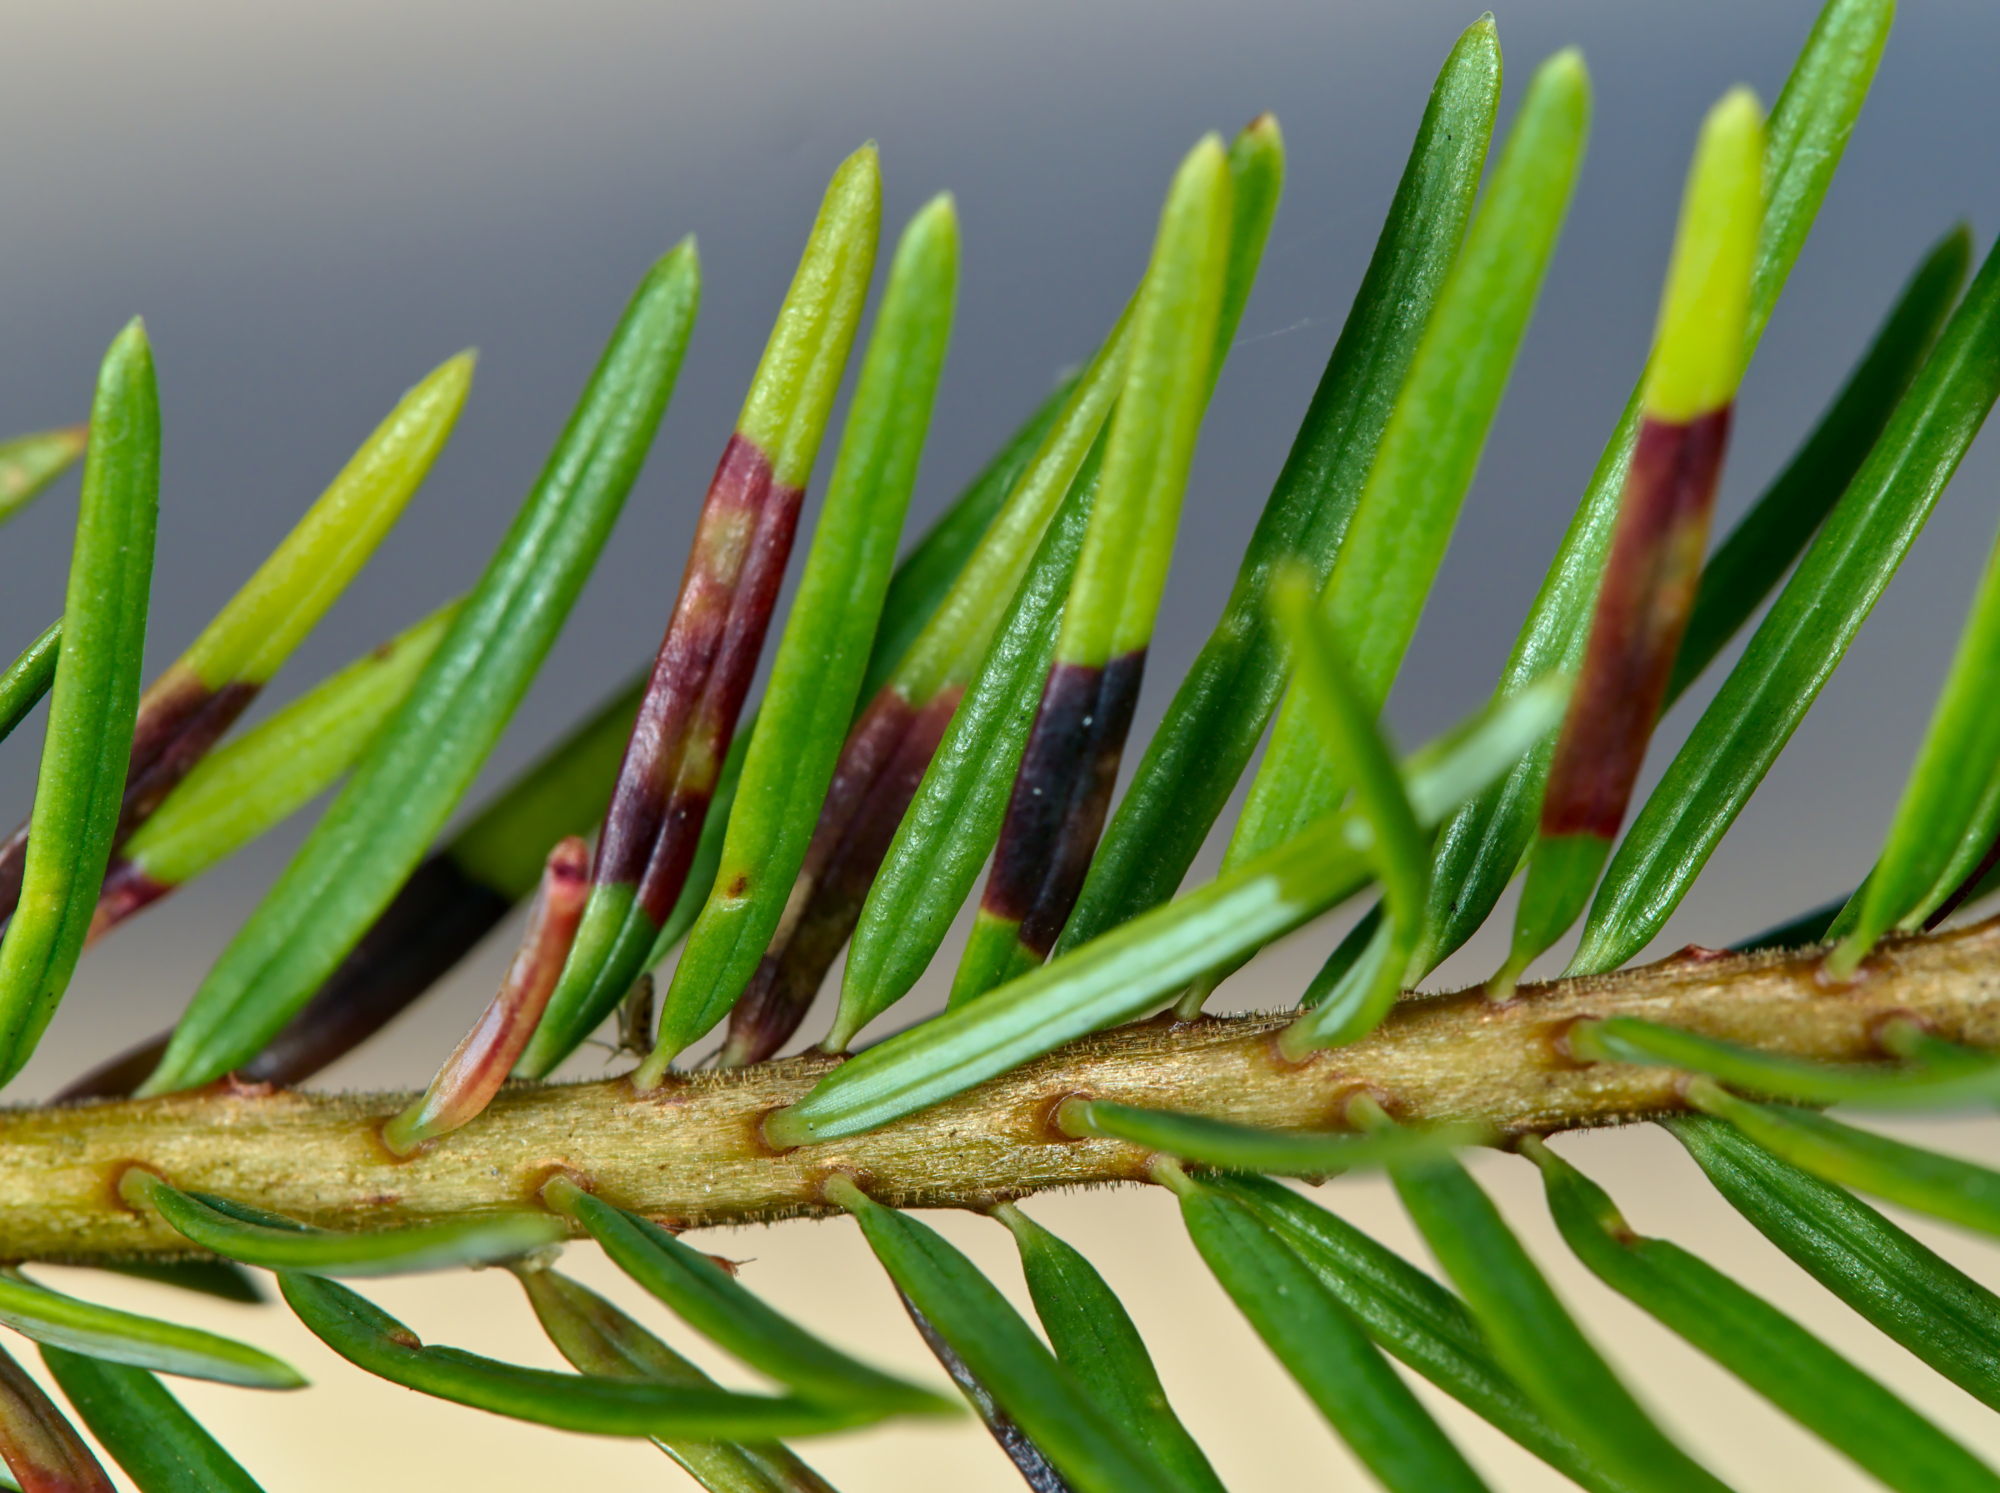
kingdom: Animalia
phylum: Arthropoda
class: Insecta
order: Diptera
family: Cecidomyiidae
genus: Contarinia
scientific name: Contarinia pseudotsugae
